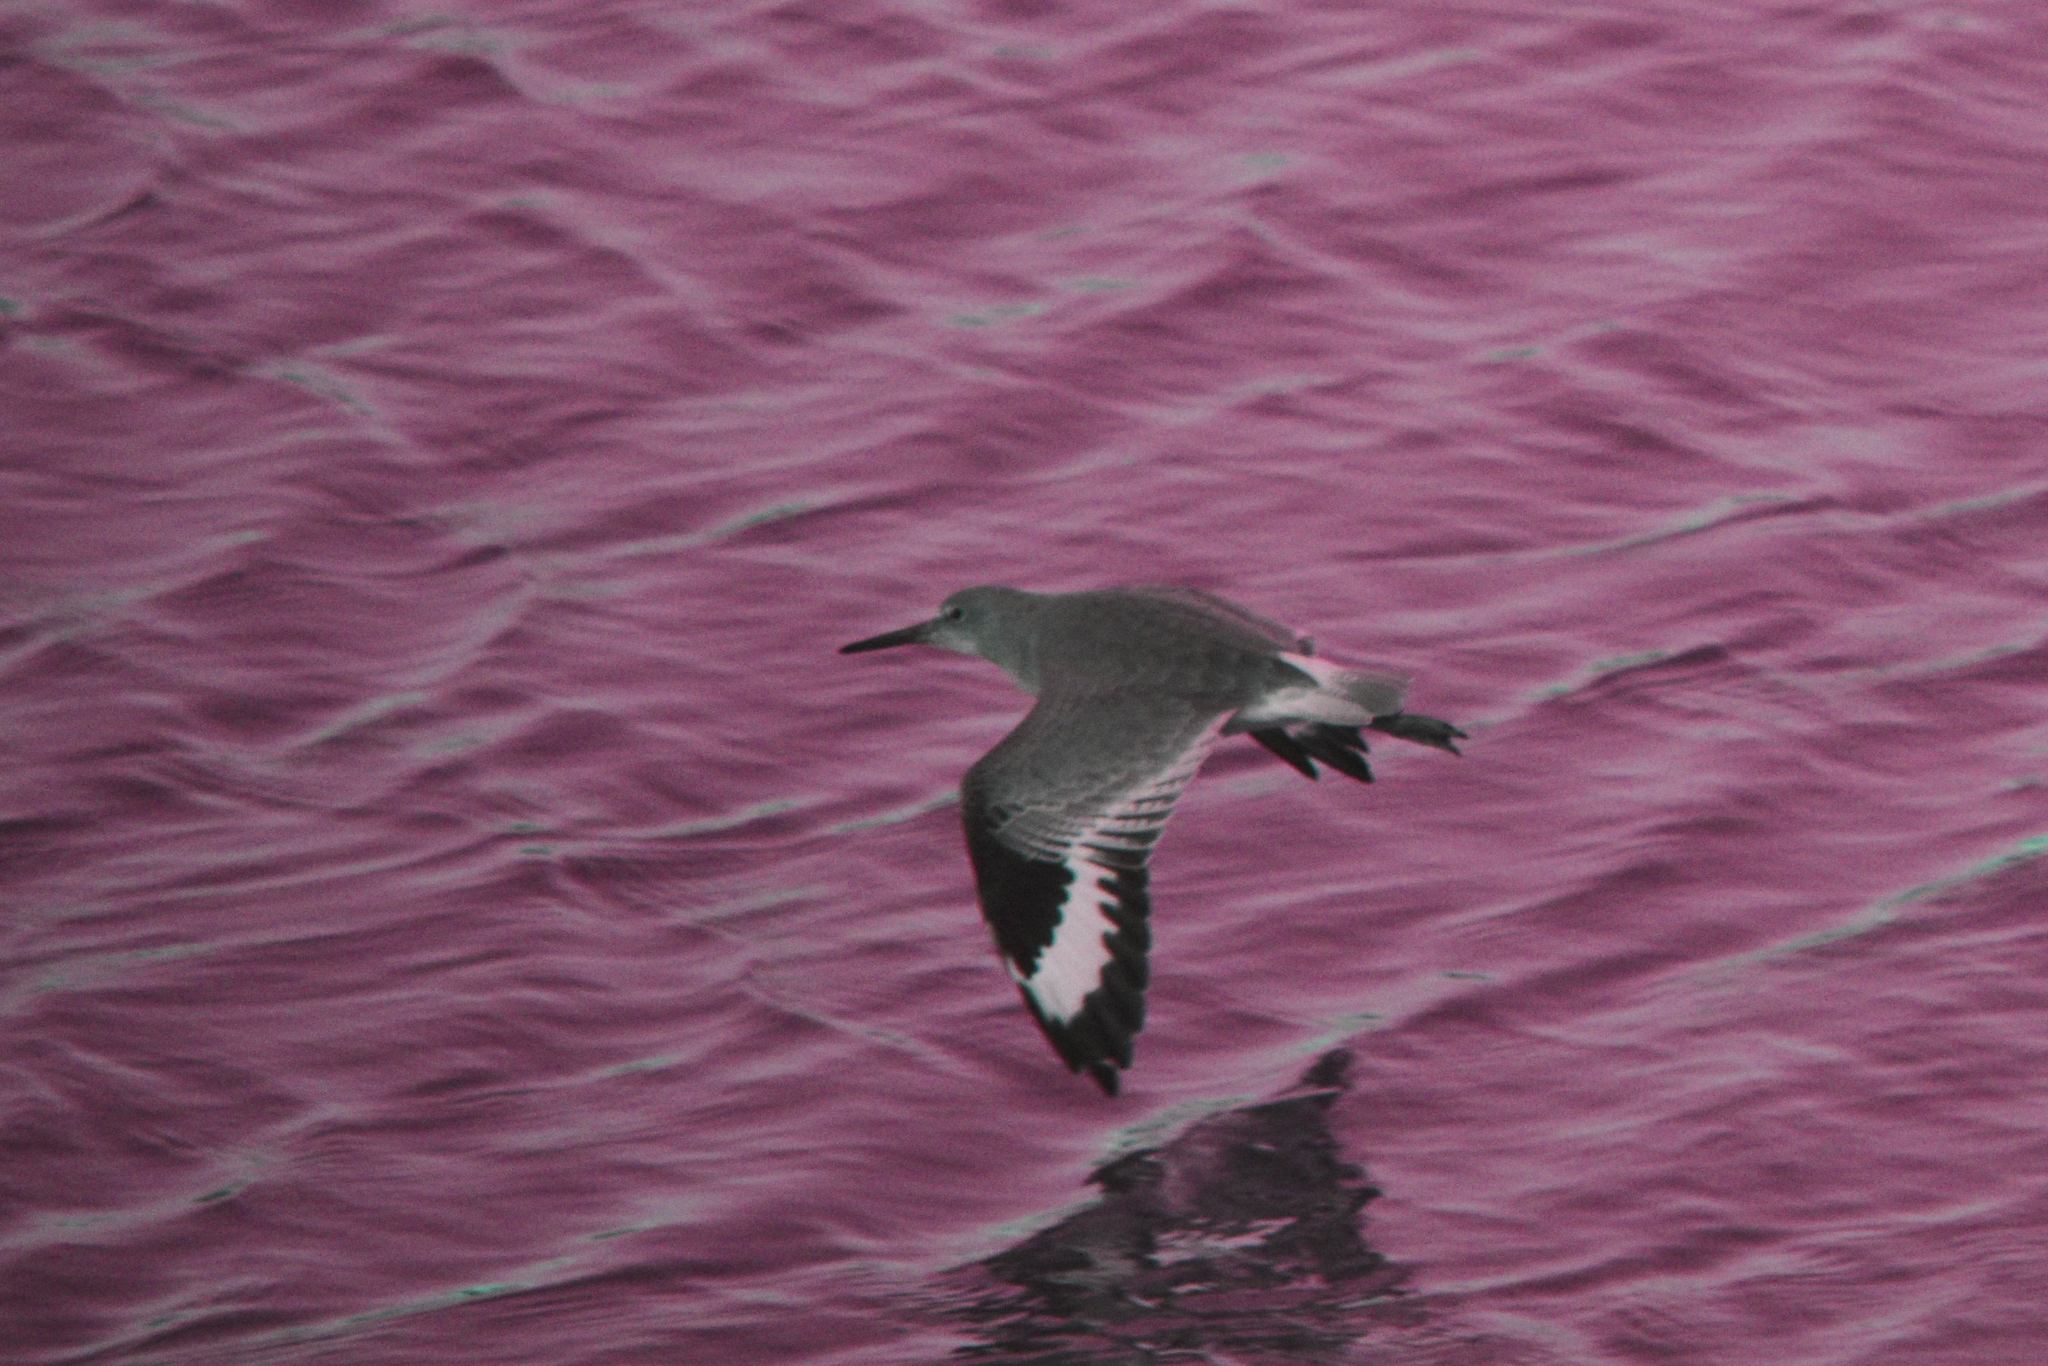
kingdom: Animalia
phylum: Chordata
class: Aves
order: Charadriiformes
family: Scolopacidae
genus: Tringa
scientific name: Tringa semipalmata
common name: Willet
